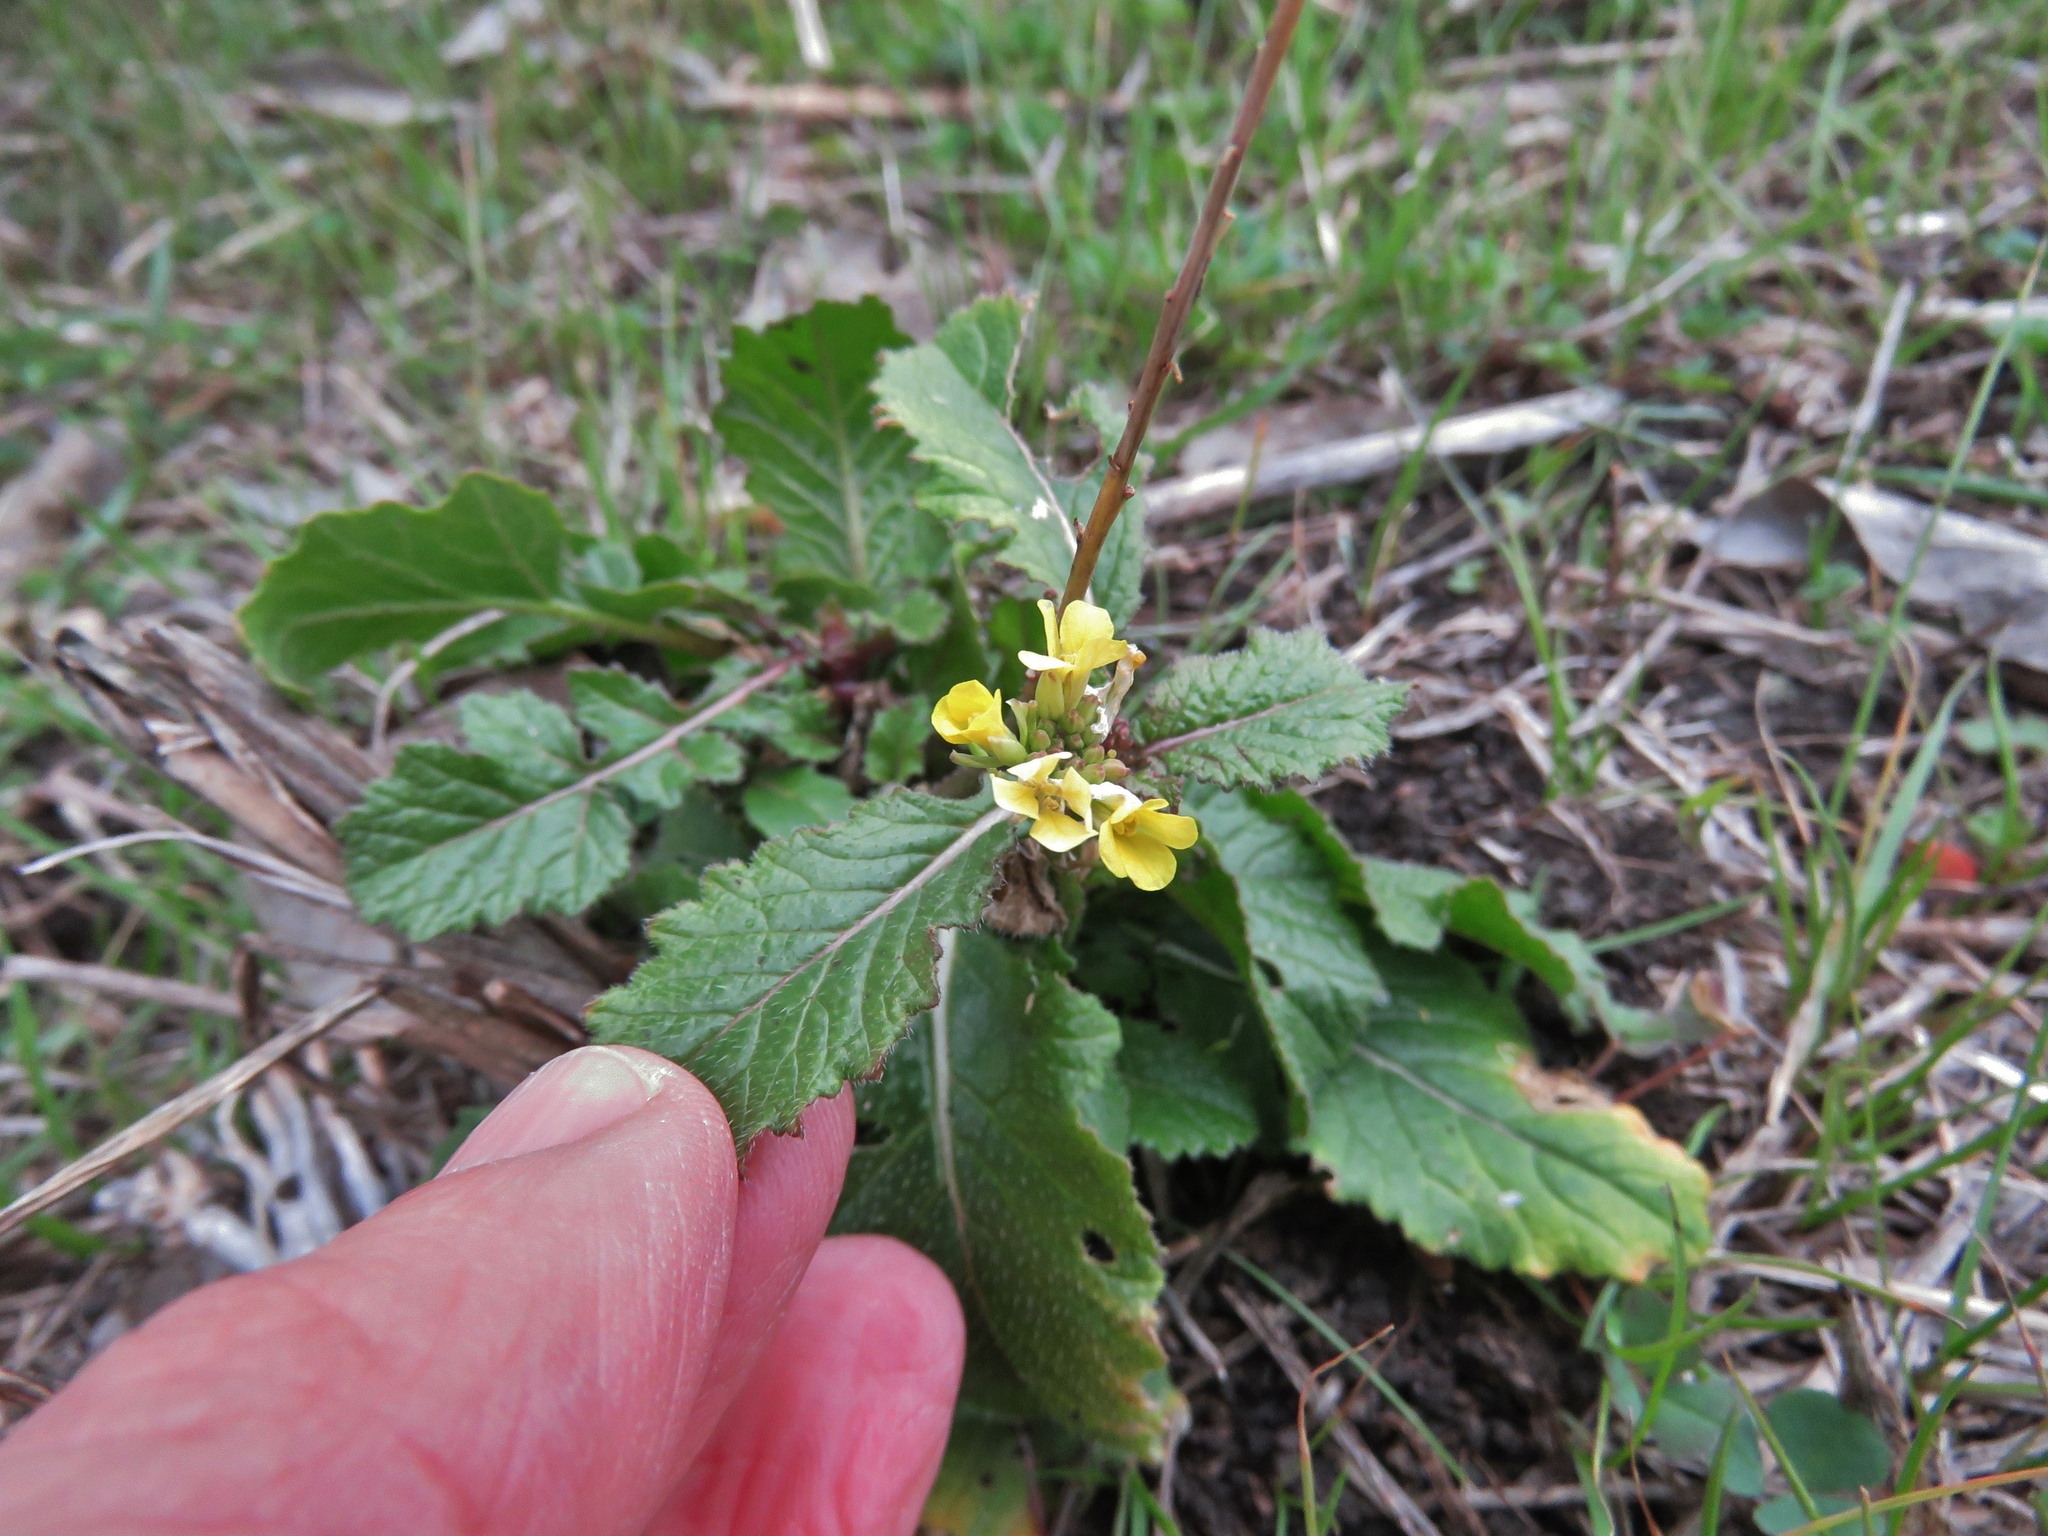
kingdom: Plantae
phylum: Tracheophyta
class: Magnoliopsida
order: Brassicales
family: Brassicaceae
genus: Rapistrum
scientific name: Rapistrum rugosum
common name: Annual bastardcabbage
